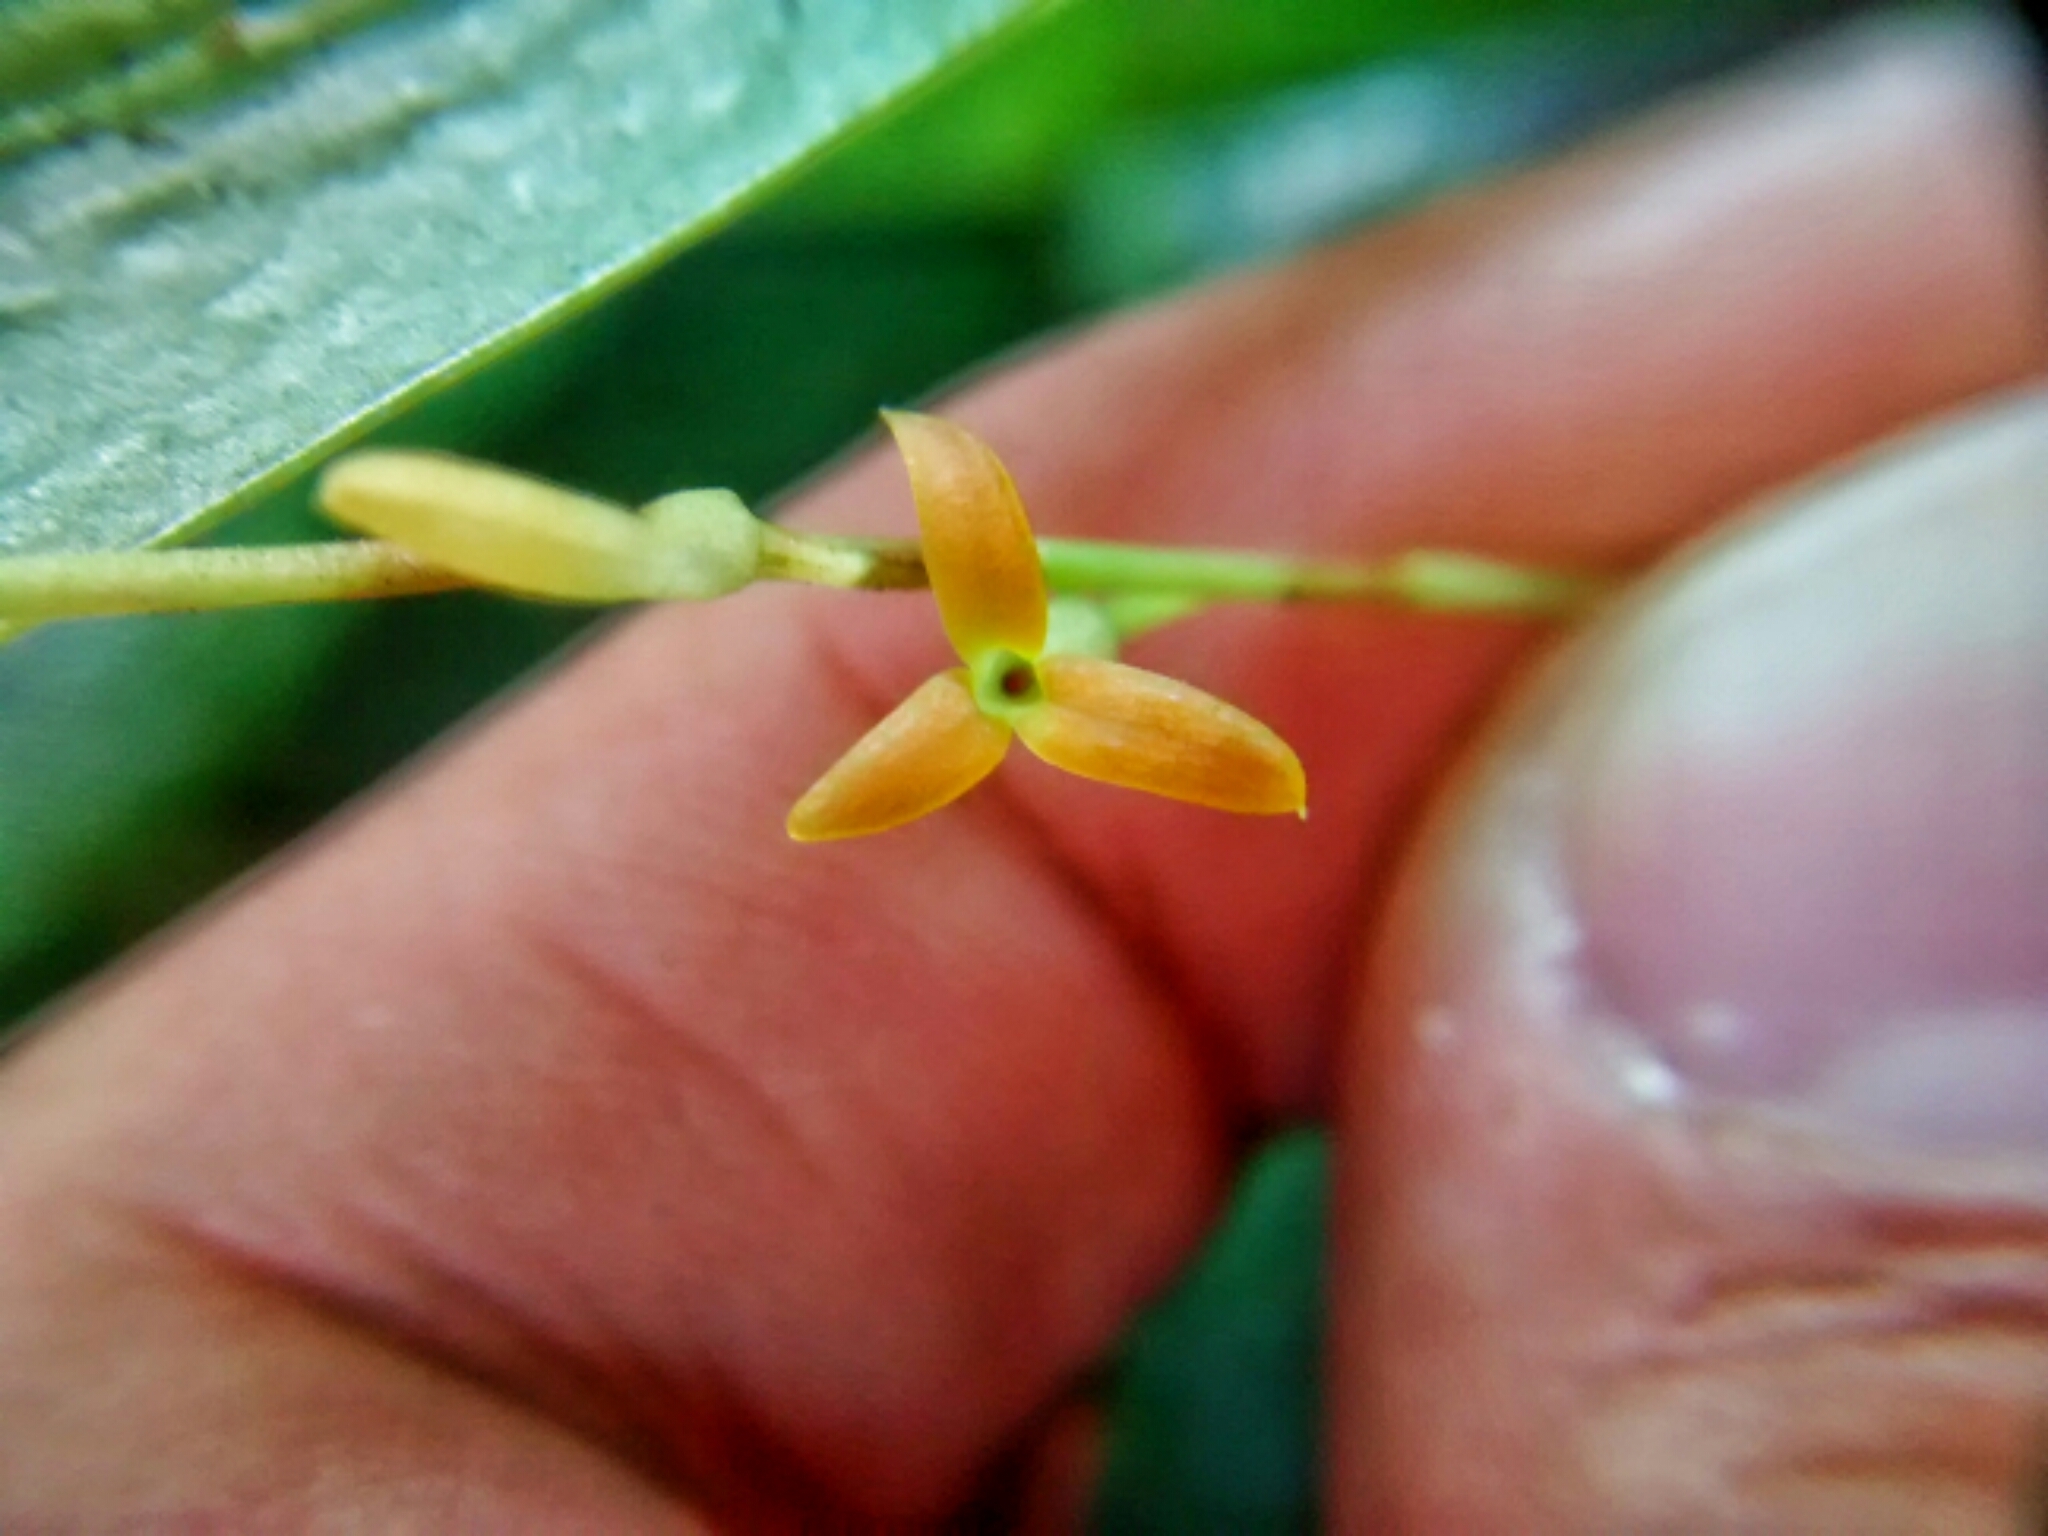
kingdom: Plantae
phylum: Tracheophyta
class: Liliopsida
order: Asparagales
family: Orchidaceae
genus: Stelis
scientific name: Stelis emarginata
